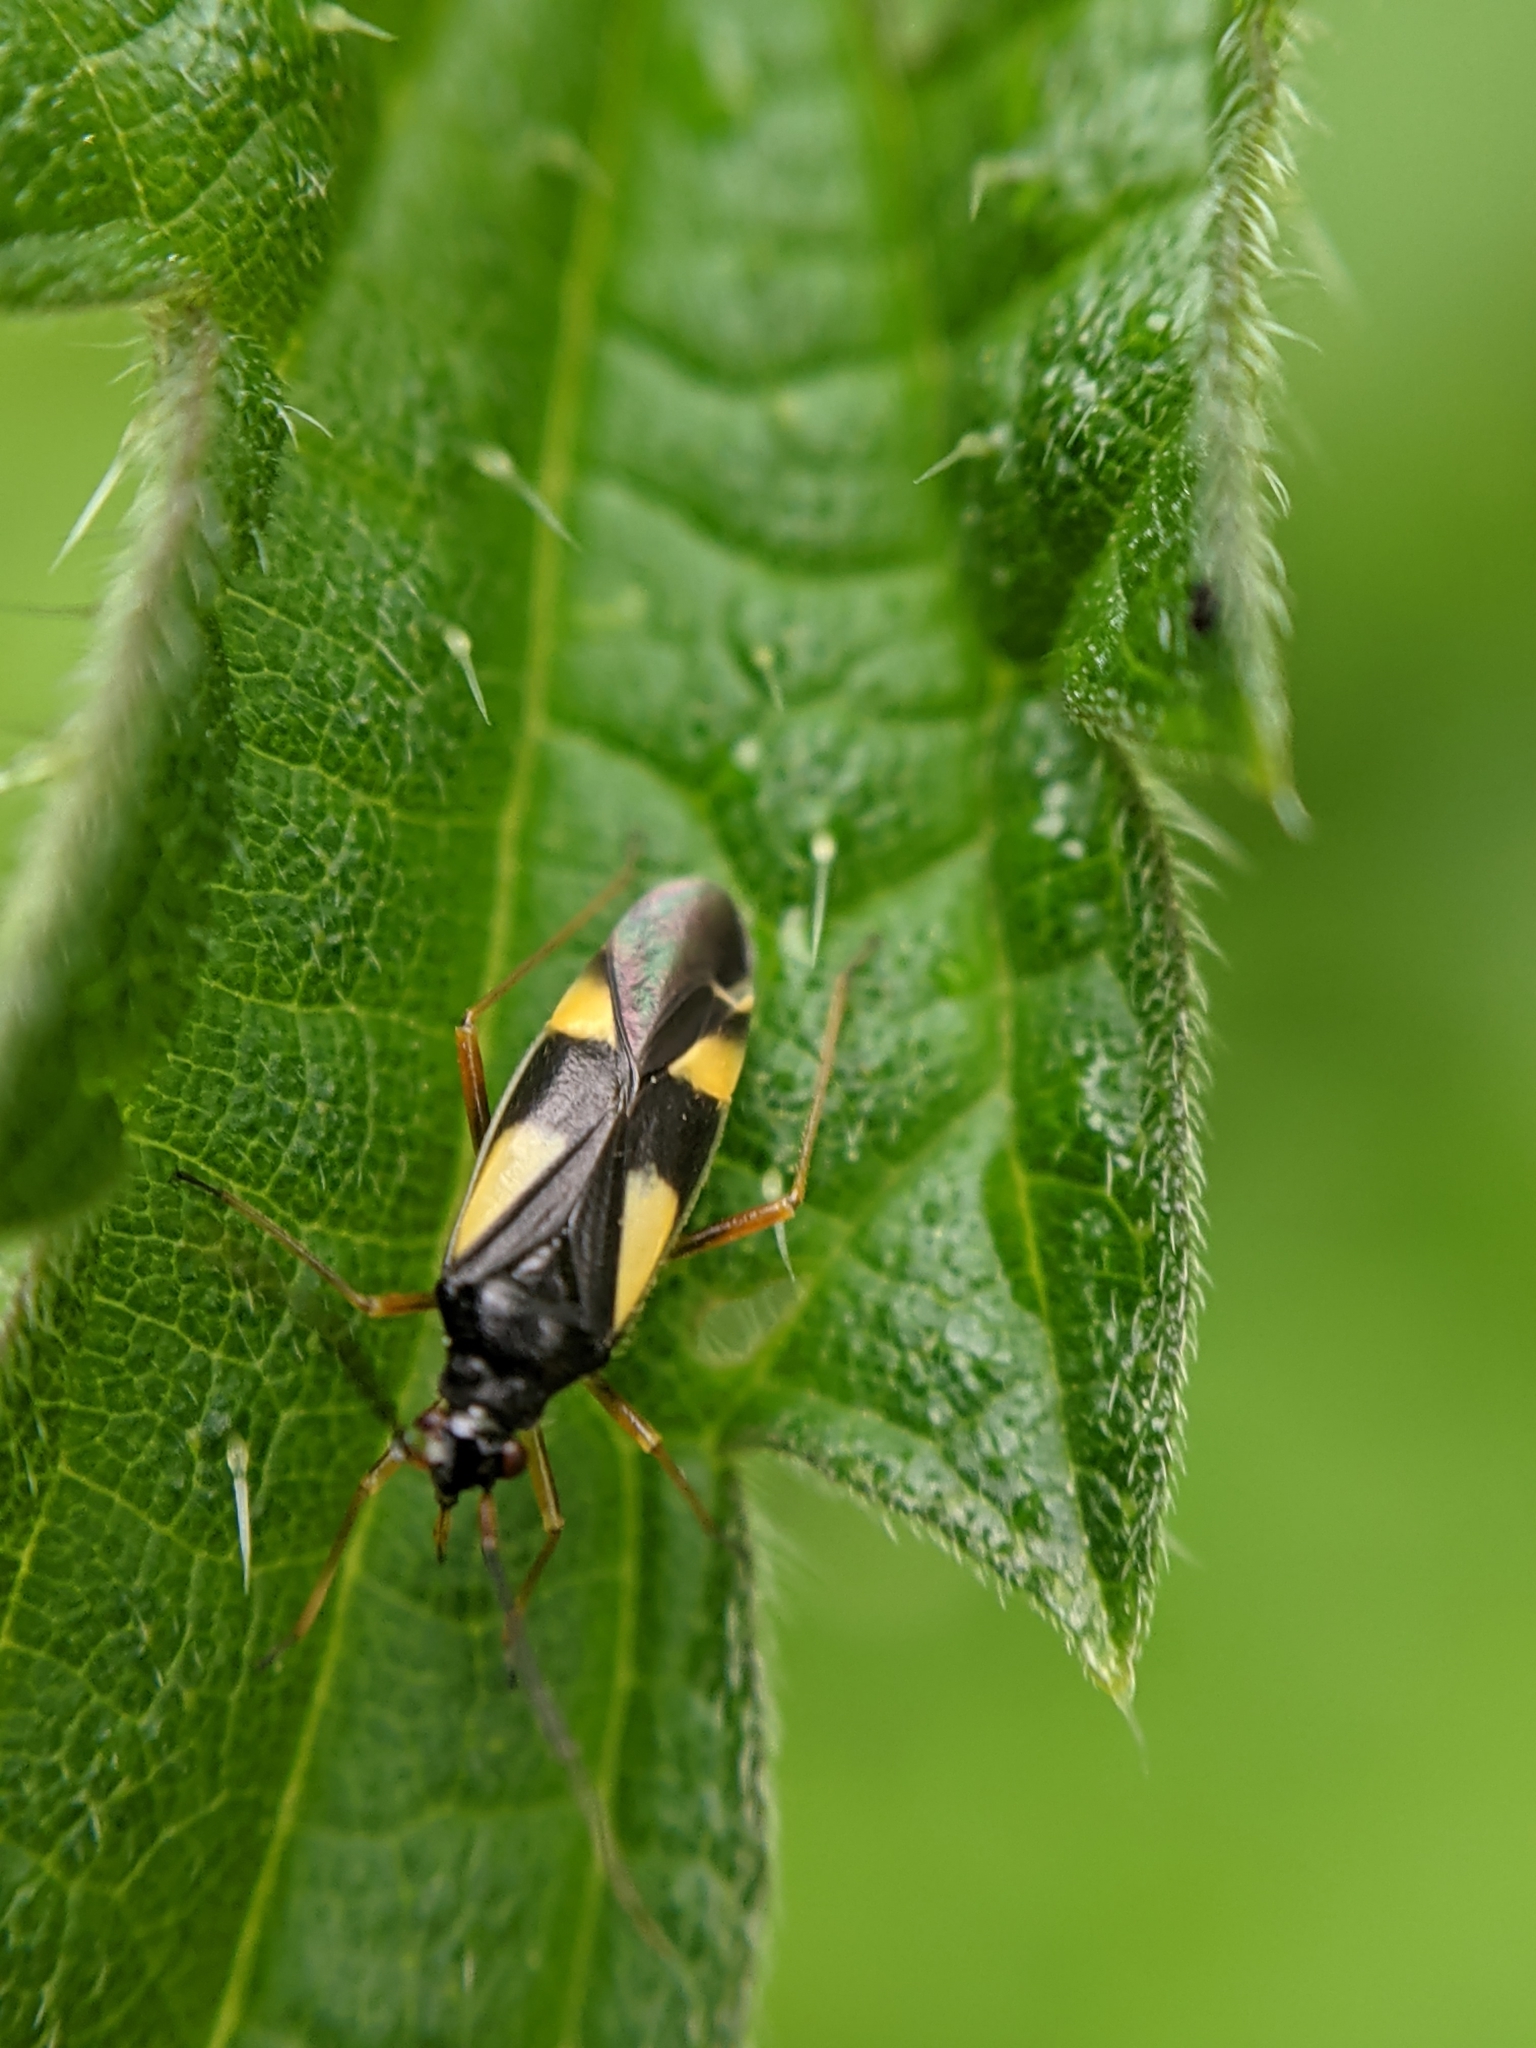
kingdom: Animalia
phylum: Arthropoda
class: Insecta
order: Hemiptera
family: Miridae
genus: Dryophilocoris
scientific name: Dryophilocoris flavoquadrimaculatus
